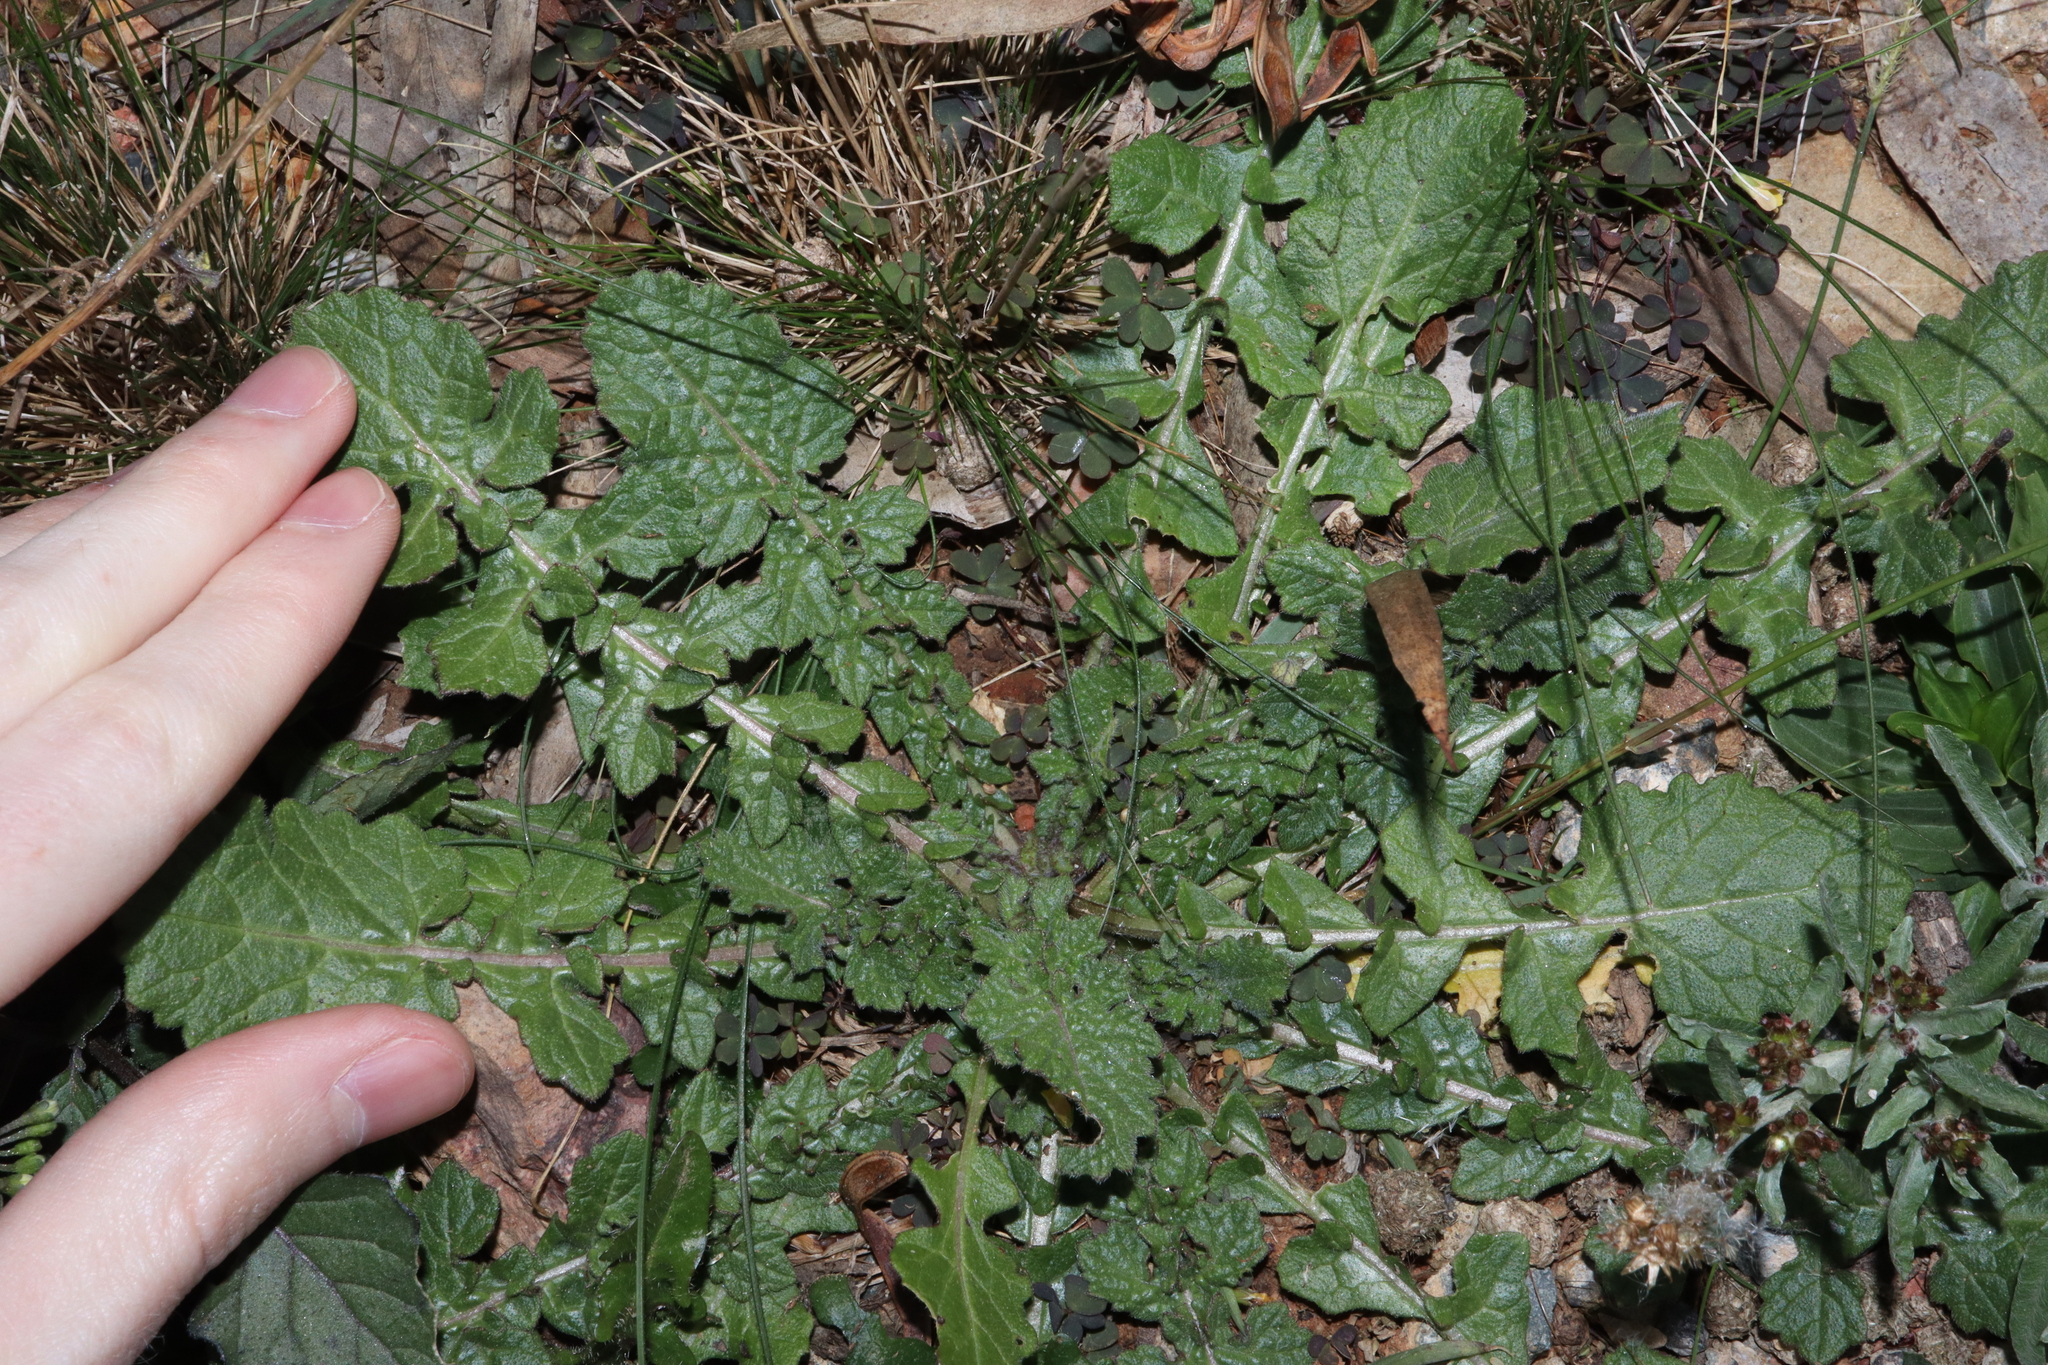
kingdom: Plantae
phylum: Tracheophyta
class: Magnoliopsida
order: Asterales
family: Asteraceae
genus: Arctotheca
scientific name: Arctotheca calendula
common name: Capeweed
